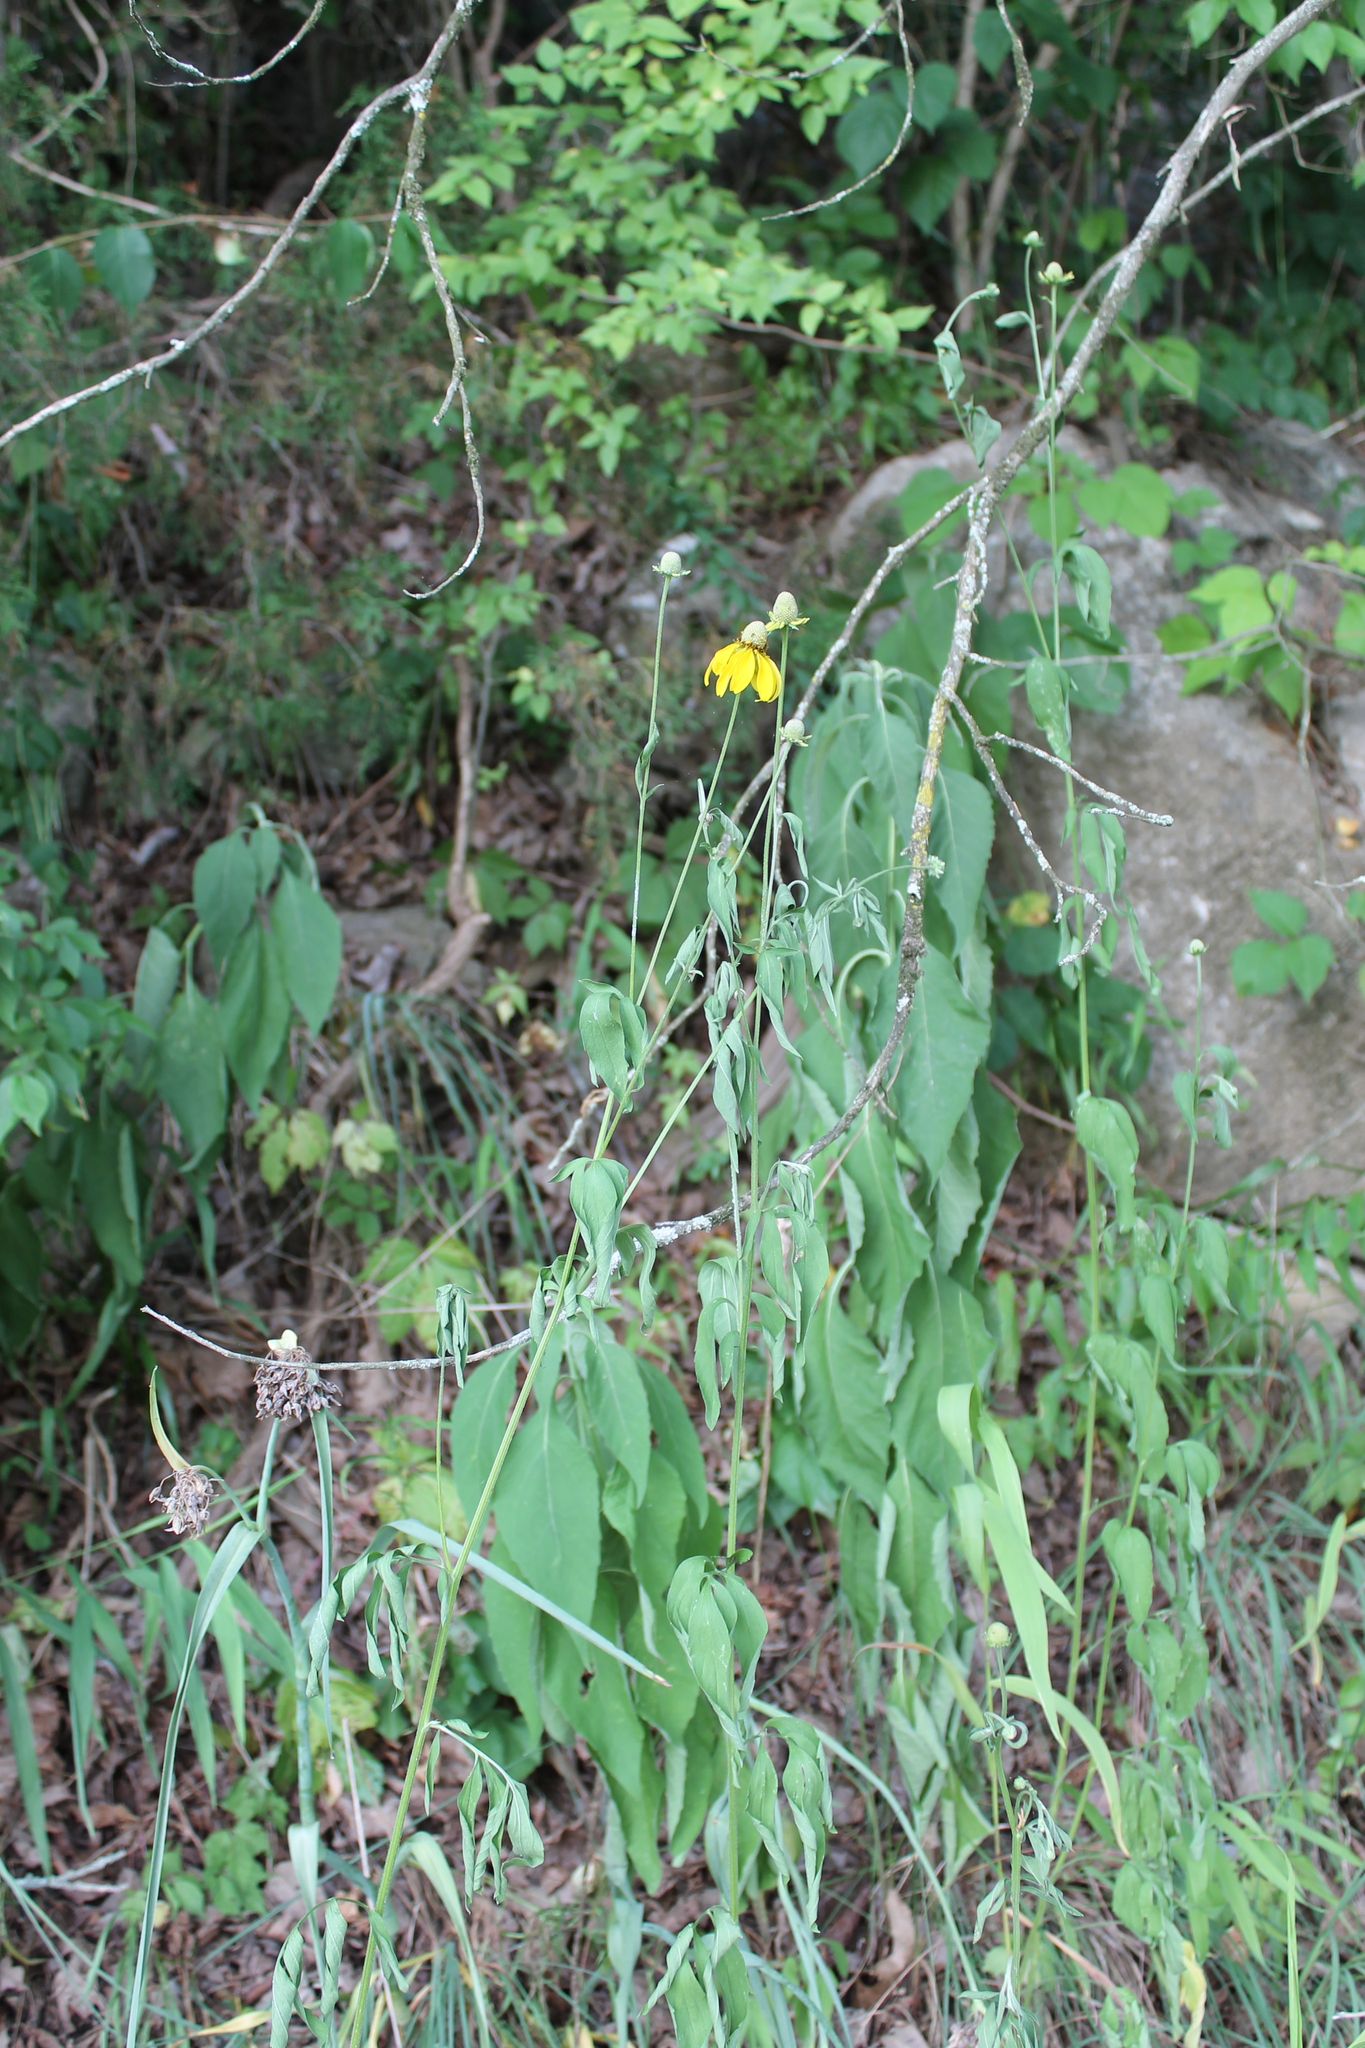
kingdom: Plantae
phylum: Tracheophyta
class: Magnoliopsida
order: Asterales
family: Asteraceae
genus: Ratibida
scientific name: Ratibida pinnata
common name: Drooping prairie-coneflower
